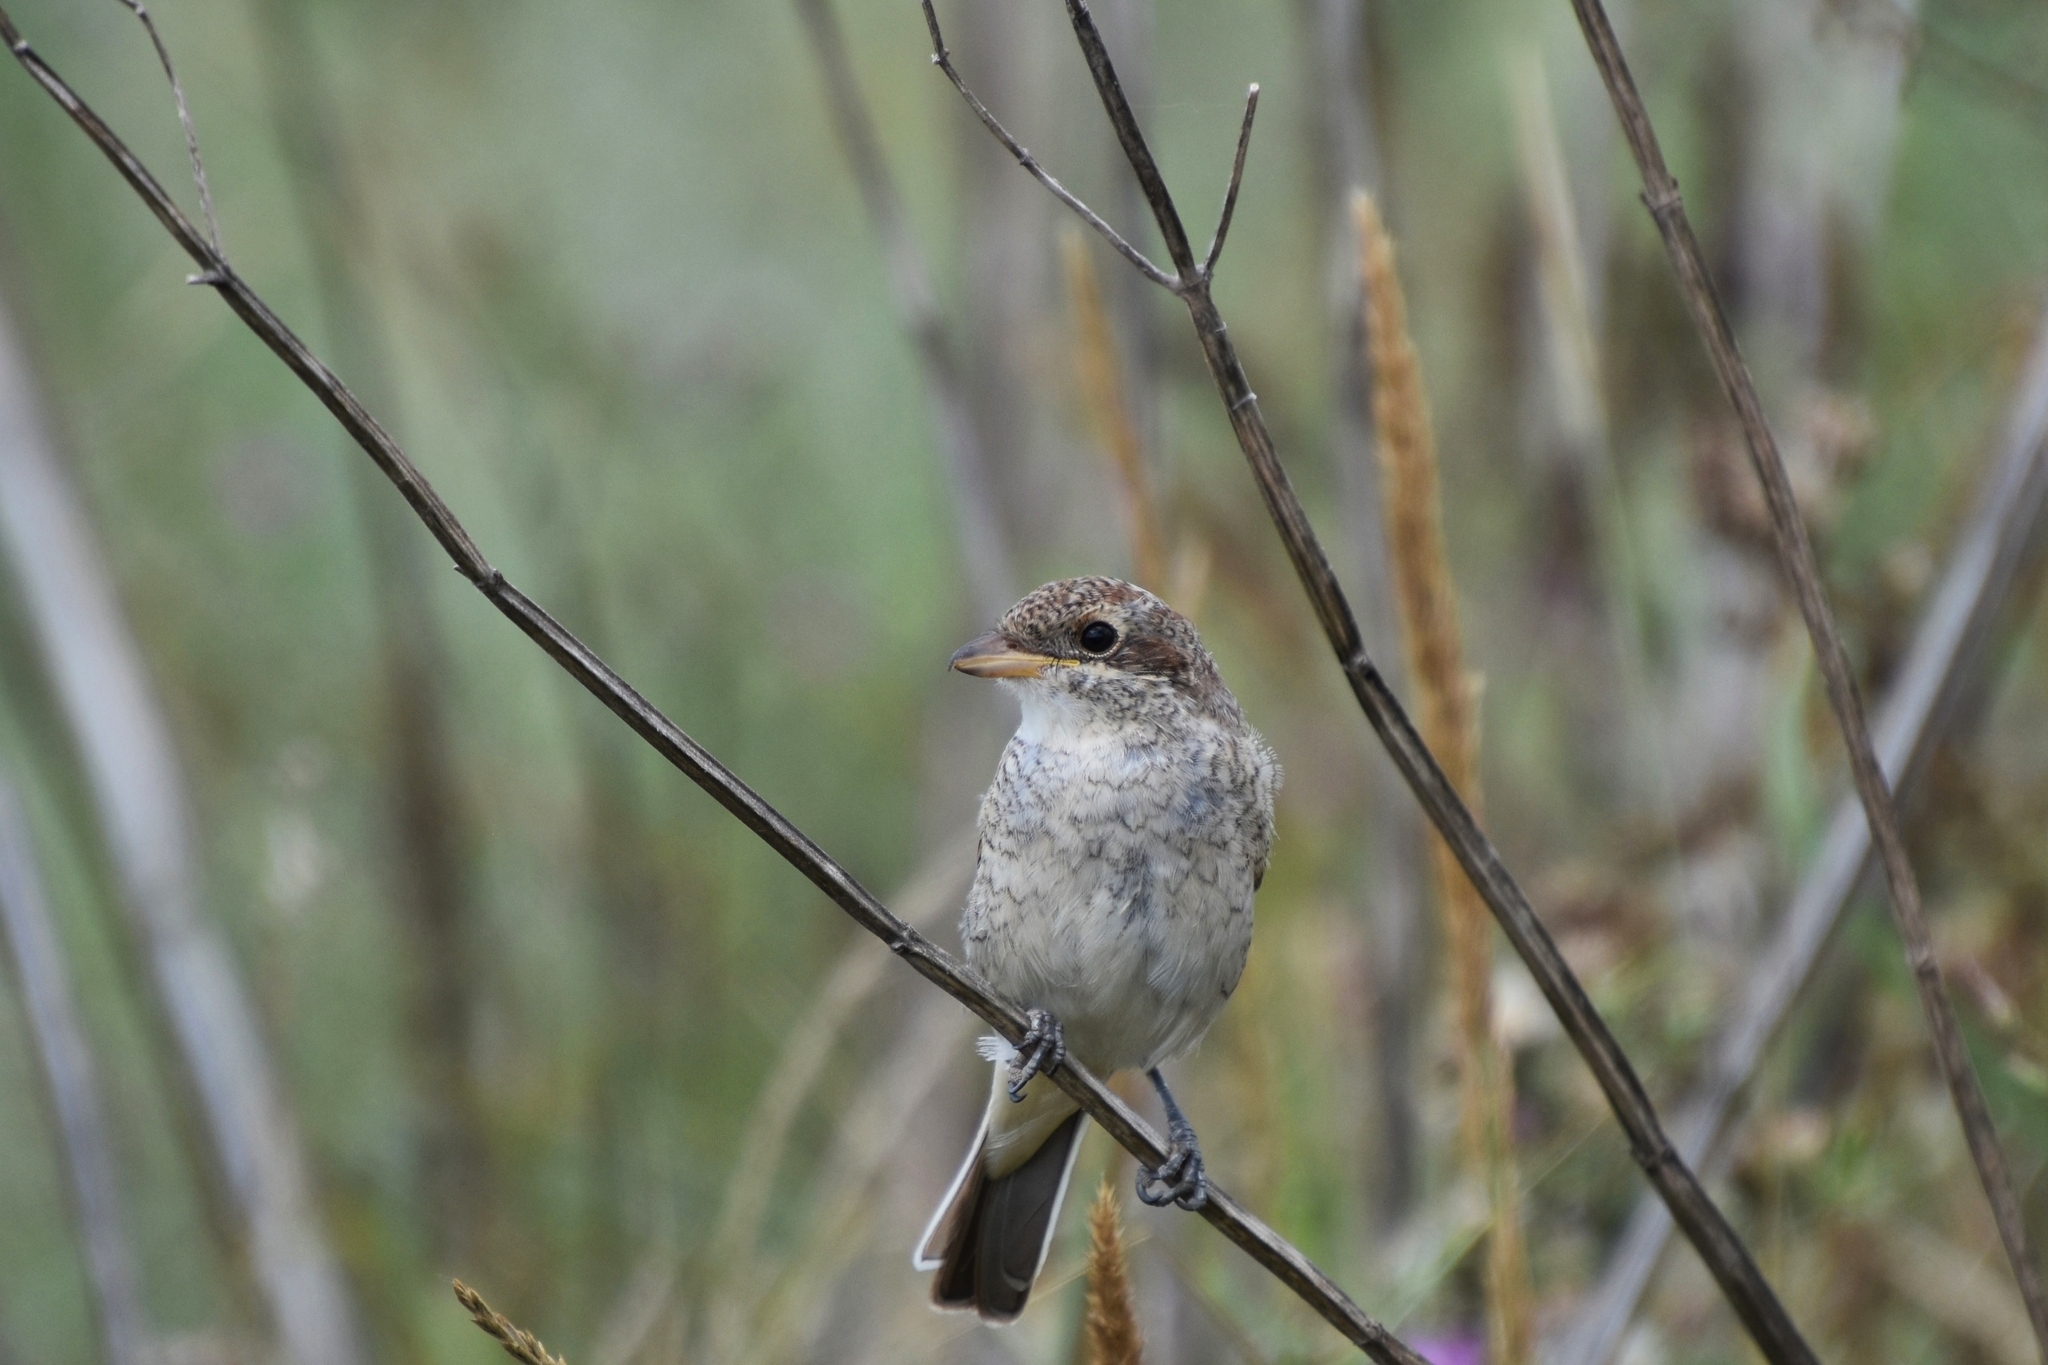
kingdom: Animalia
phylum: Chordata
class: Aves
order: Passeriformes
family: Laniidae
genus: Lanius
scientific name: Lanius collurio
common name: Red-backed shrike
